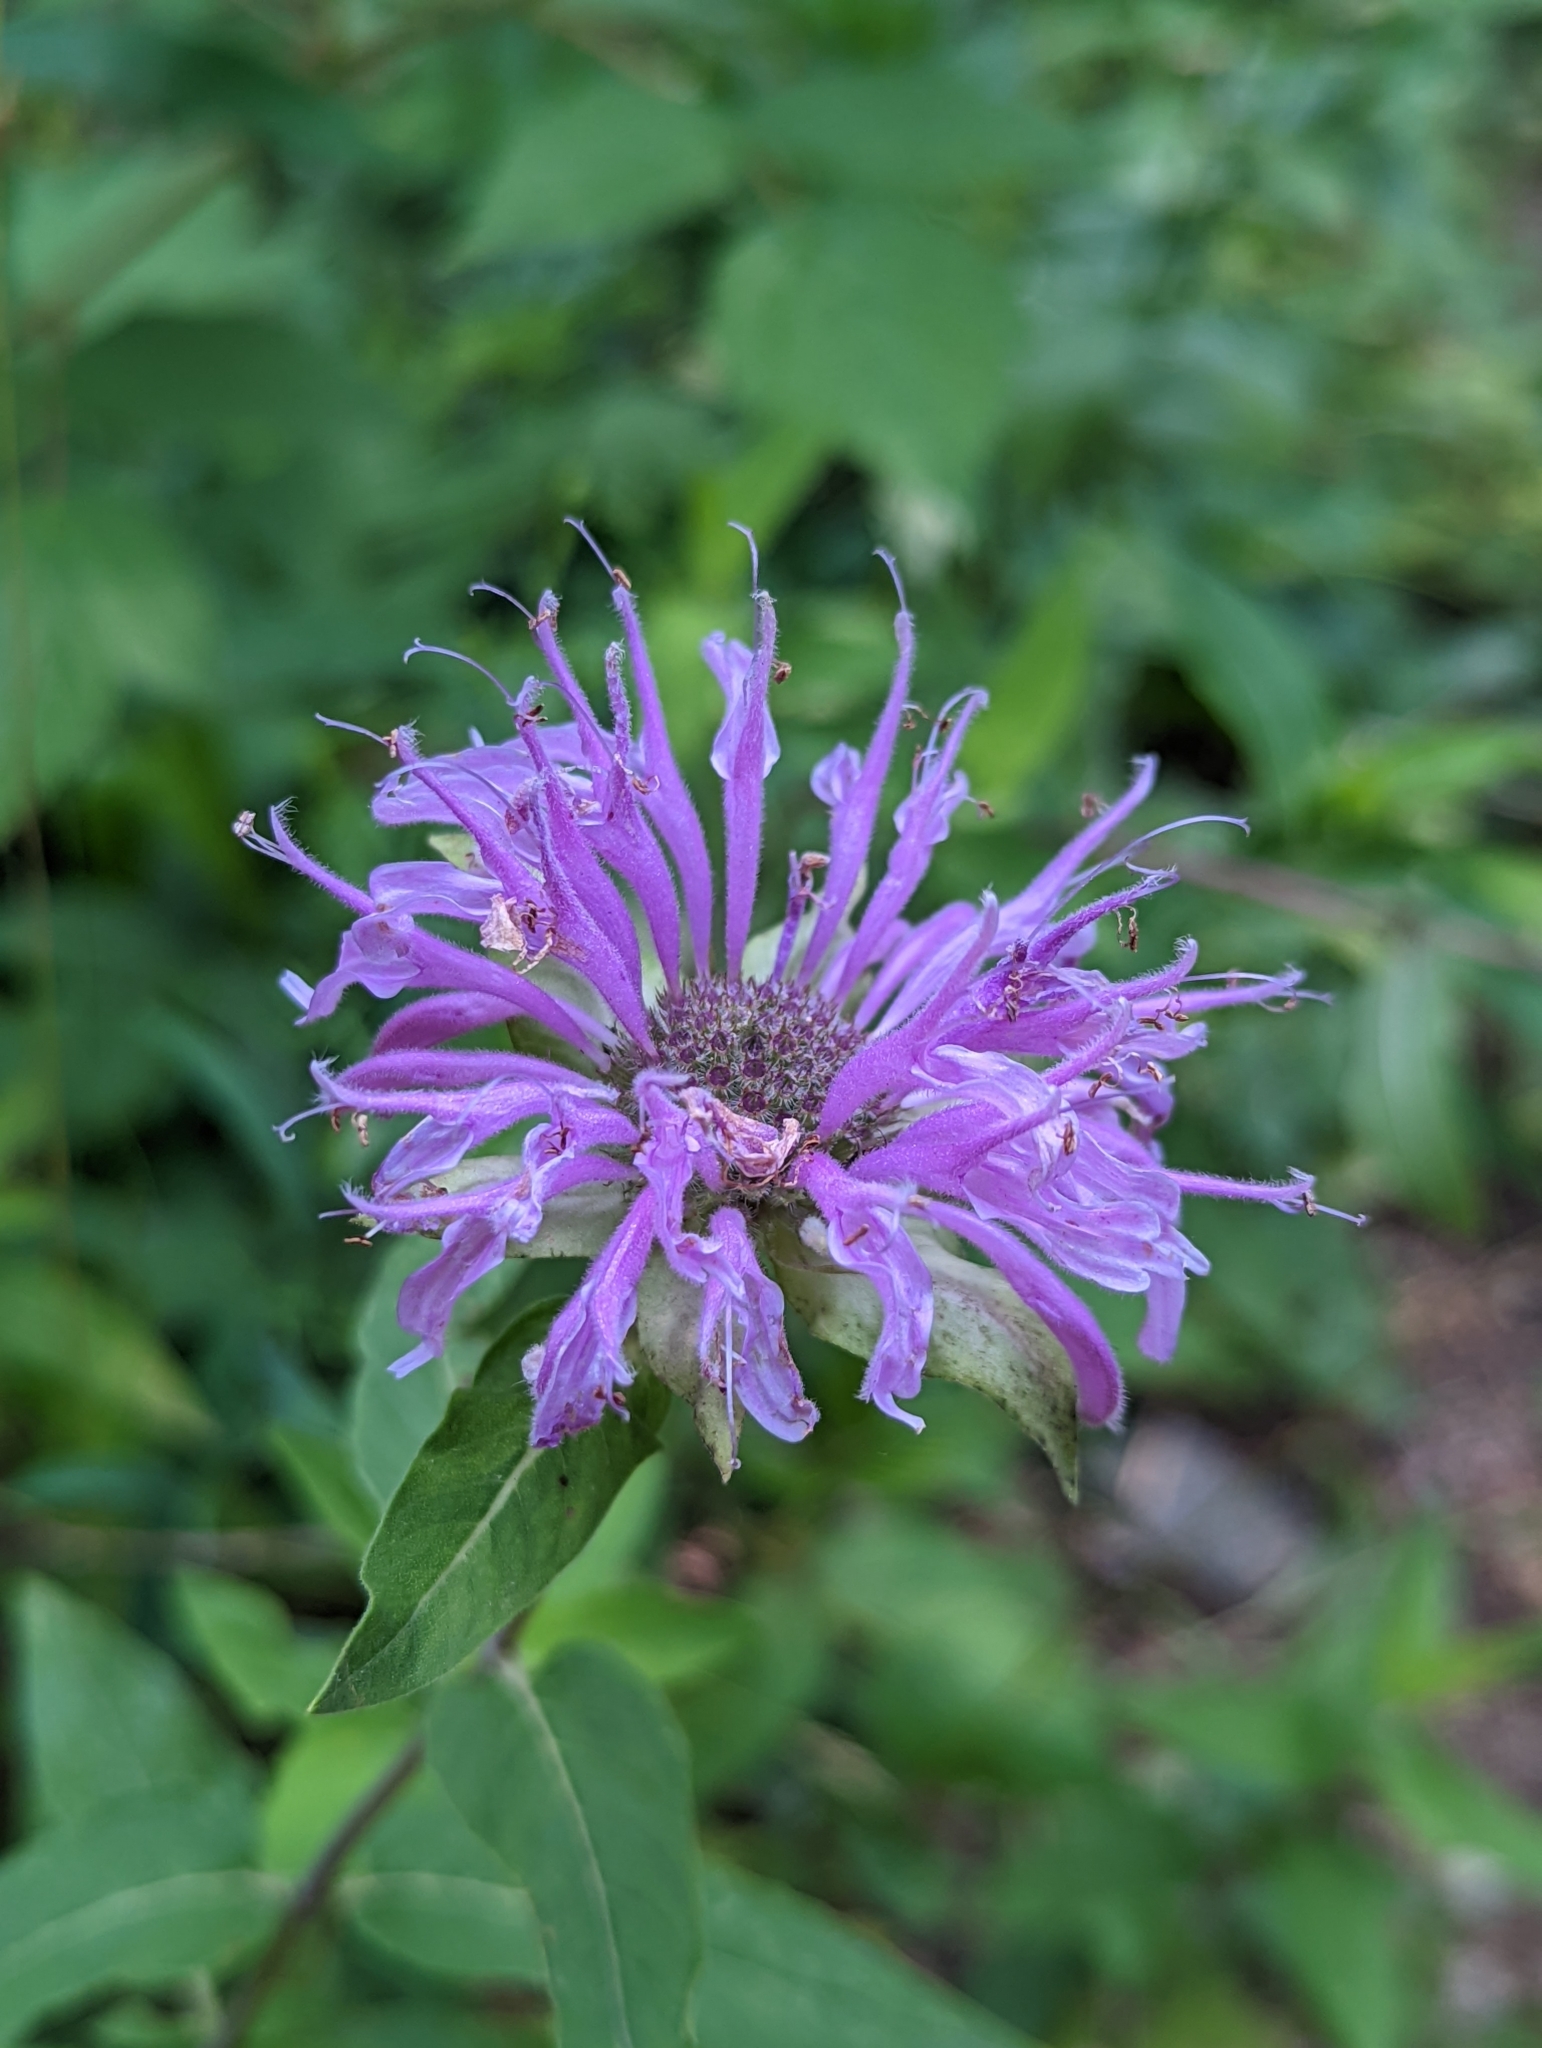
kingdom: Plantae
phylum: Tracheophyta
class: Magnoliopsida
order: Lamiales
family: Lamiaceae
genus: Monarda
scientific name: Monarda fistulosa
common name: Purple beebalm
